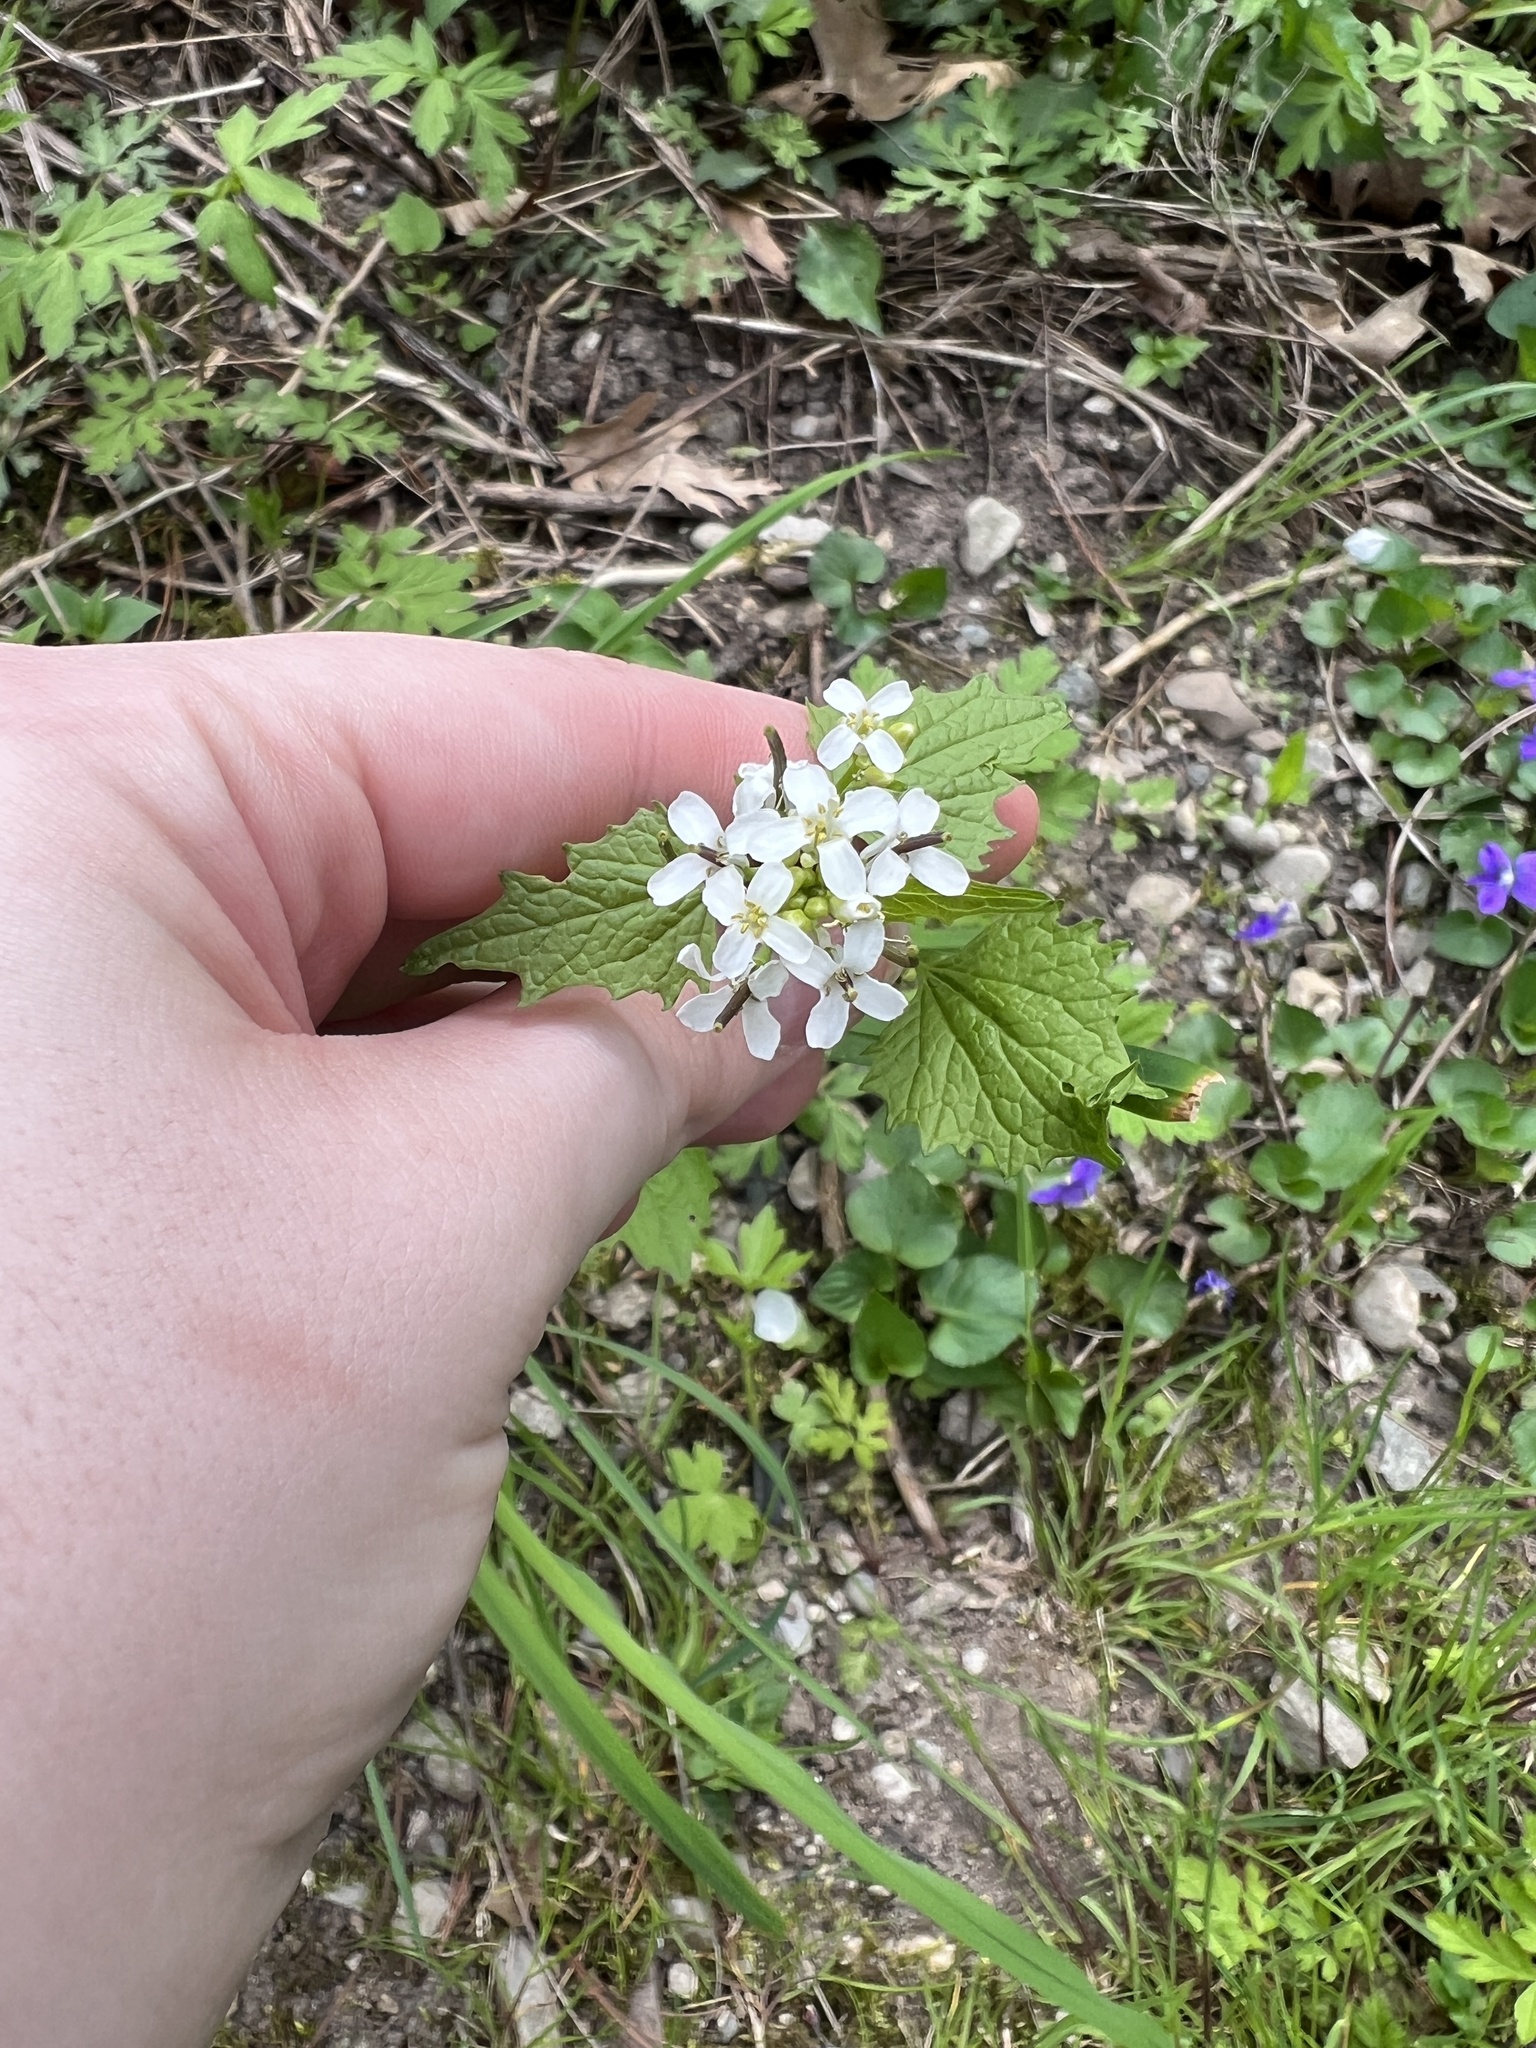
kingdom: Plantae
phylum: Tracheophyta
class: Magnoliopsida
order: Brassicales
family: Brassicaceae
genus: Alliaria
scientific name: Alliaria petiolata
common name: Garlic mustard
